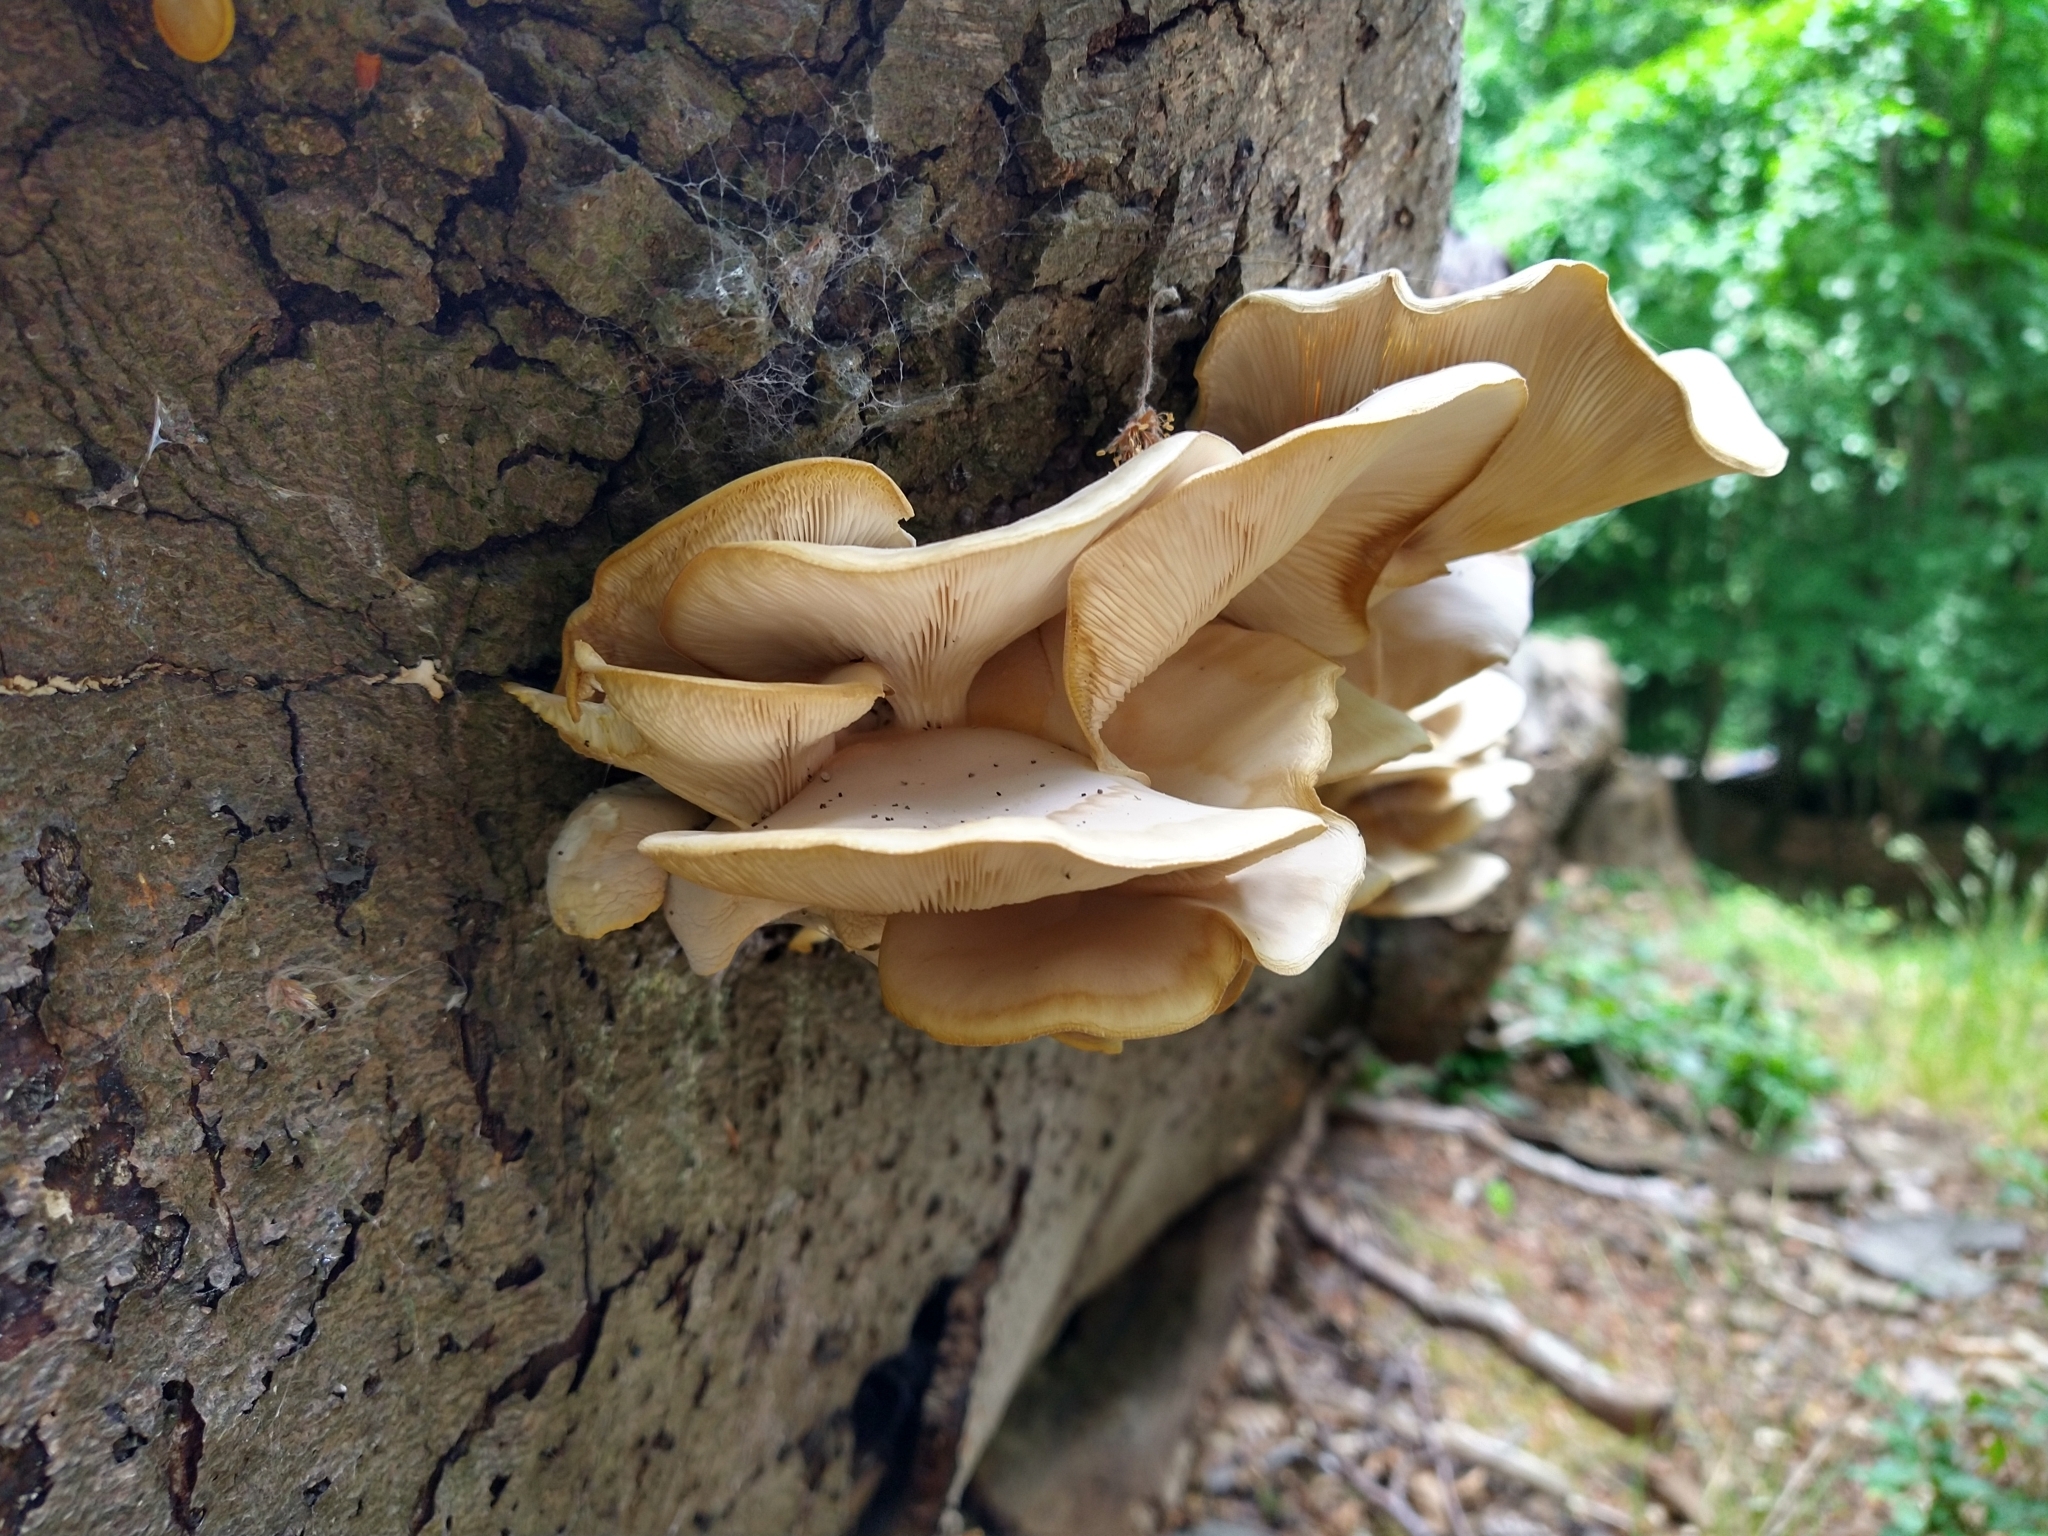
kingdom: Fungi
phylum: Basidiomycota
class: Agaricomycetes
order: Agaricales
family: Pleurotaceae
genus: Pleurotus
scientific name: Pleurotus ostreatus
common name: Oyster mushroom
